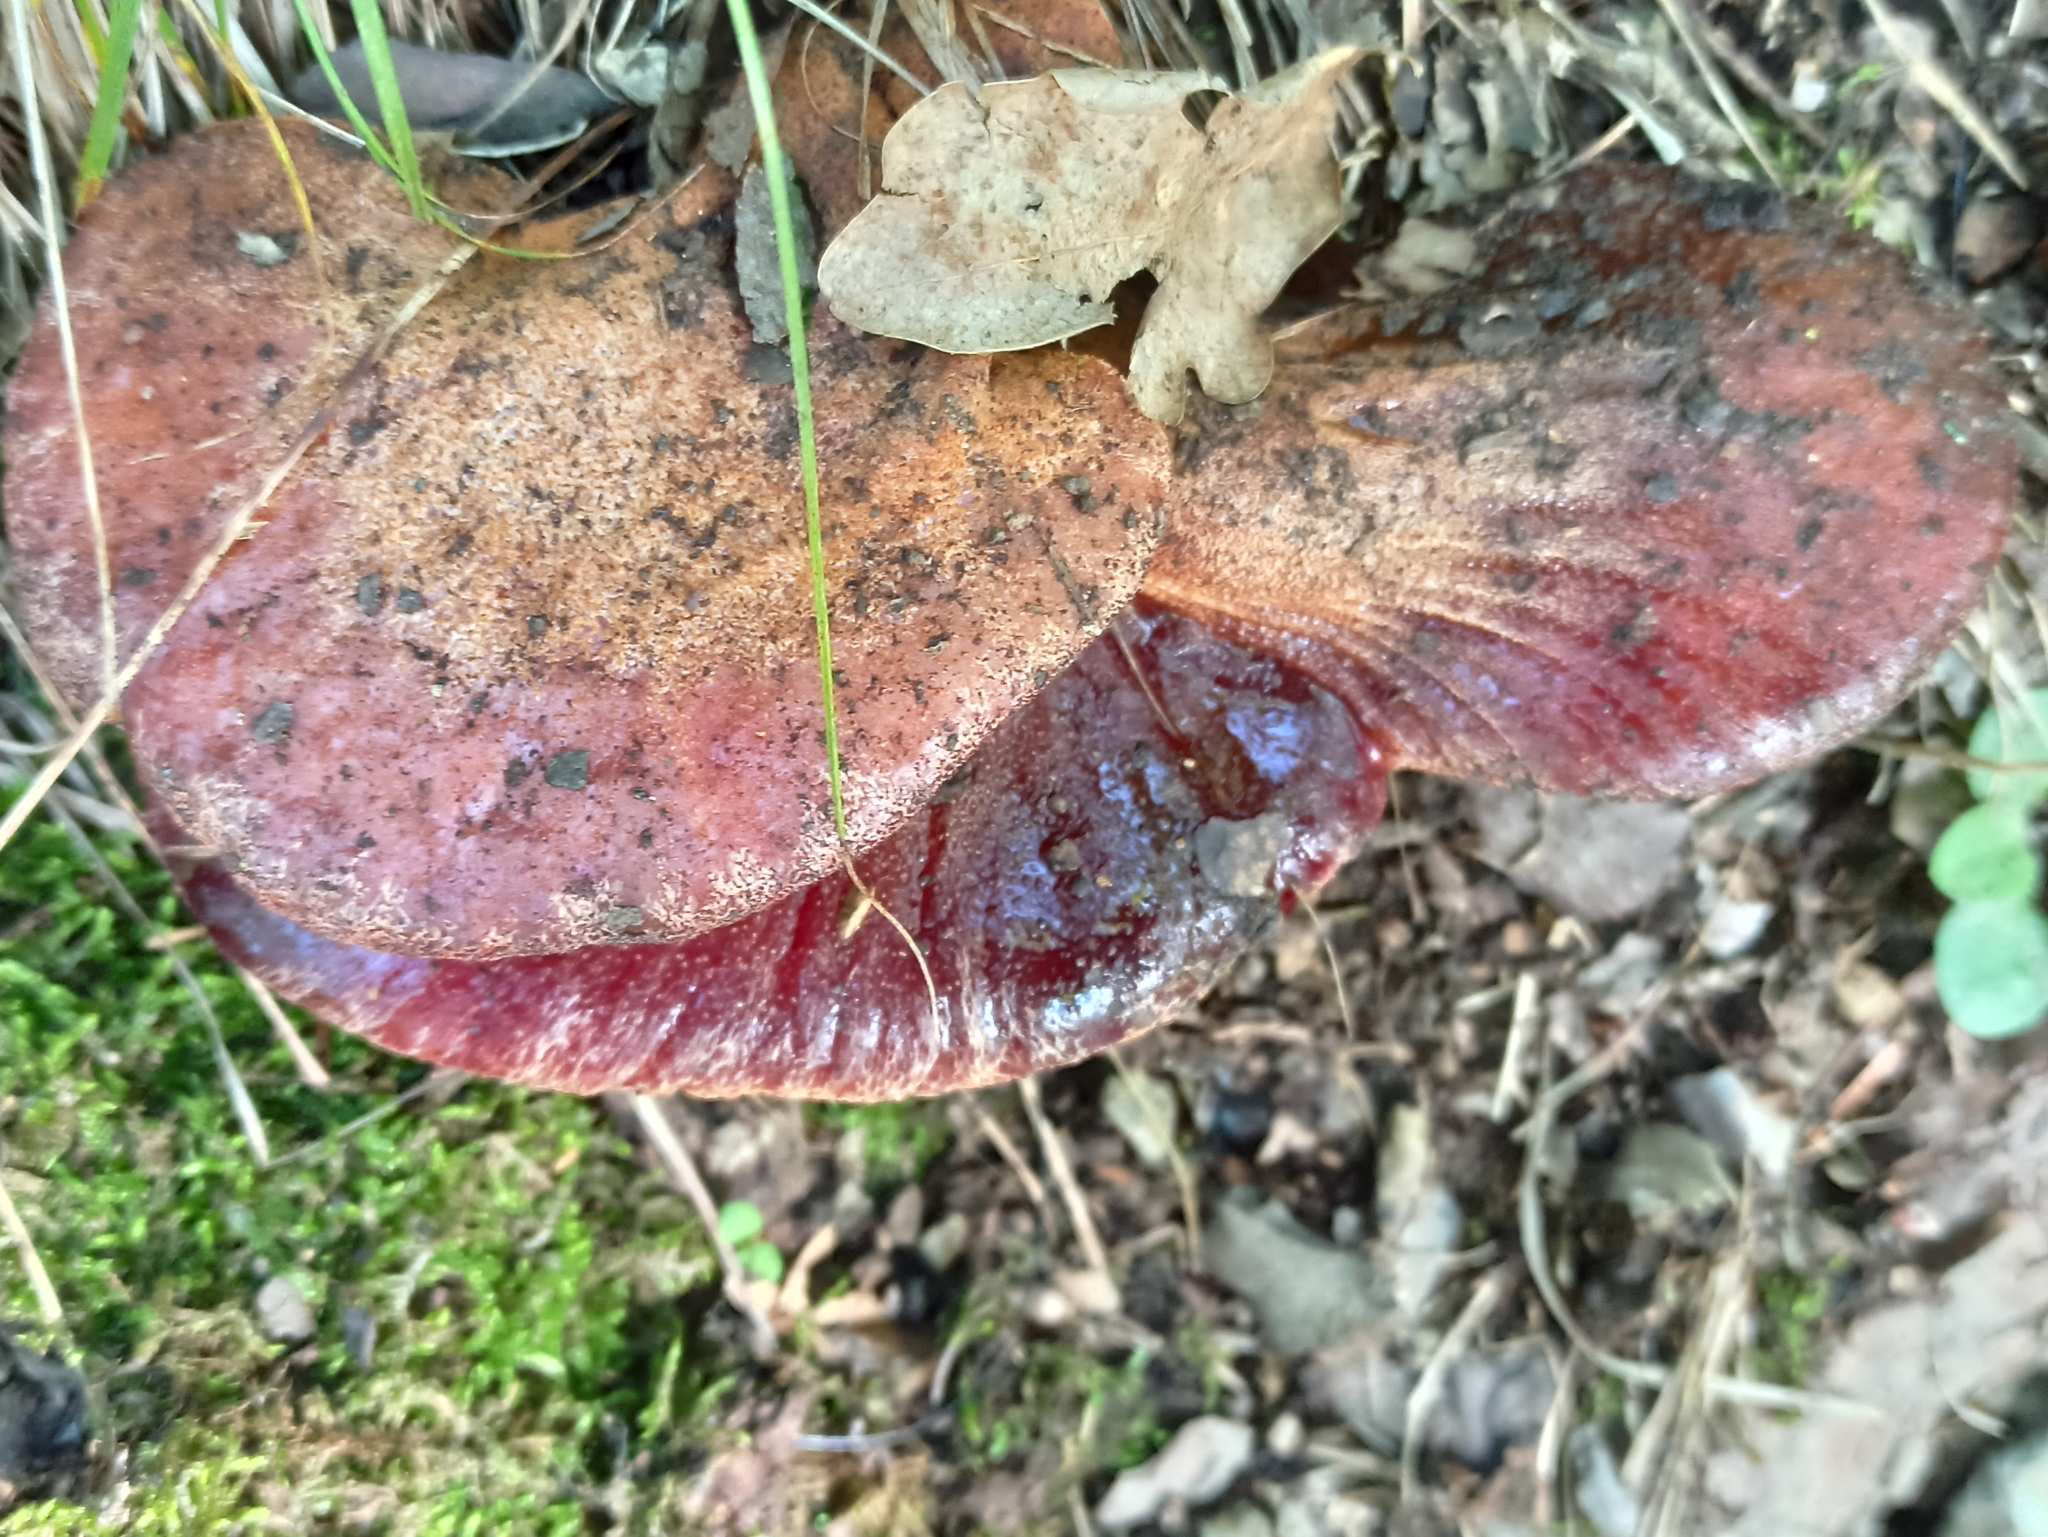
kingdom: Fungi
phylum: Basidiomycota
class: Agaricomycetes
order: Agaricales
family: Fistulinaceae
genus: Fistulina
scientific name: Fistulina hepatica
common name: Beef-steak fungus
